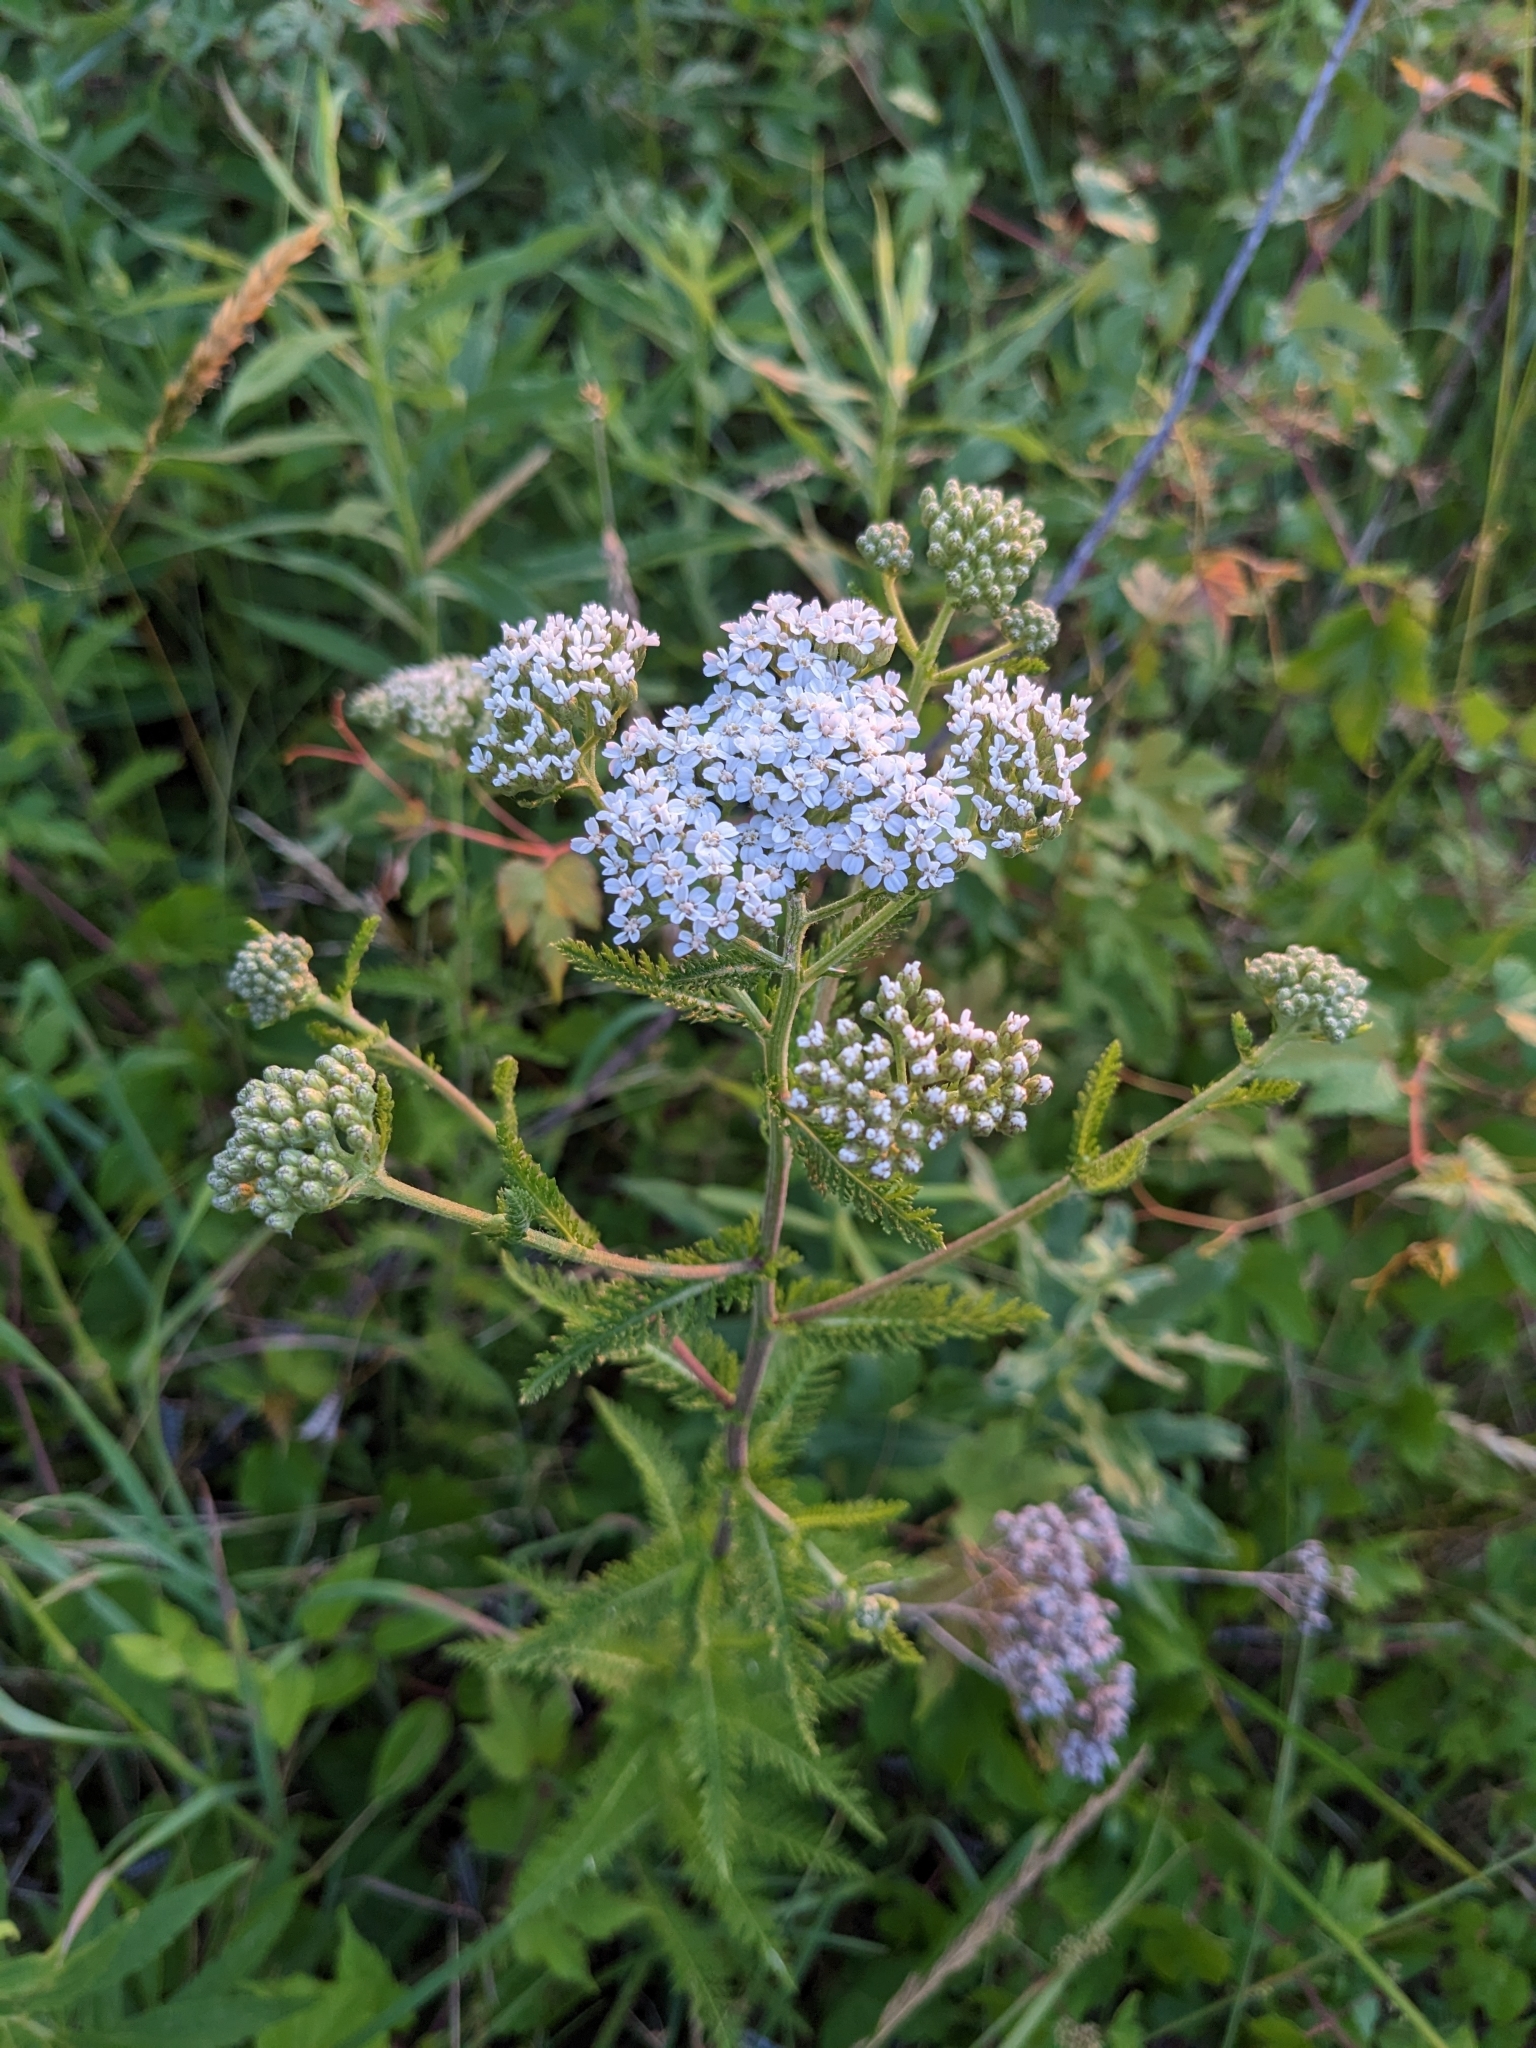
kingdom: Plantae
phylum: Tracheophyta
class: Magnoliopsida
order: Asterales
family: Asteraceae
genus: Achillea
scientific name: Achillea millefolium
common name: Yarrow
